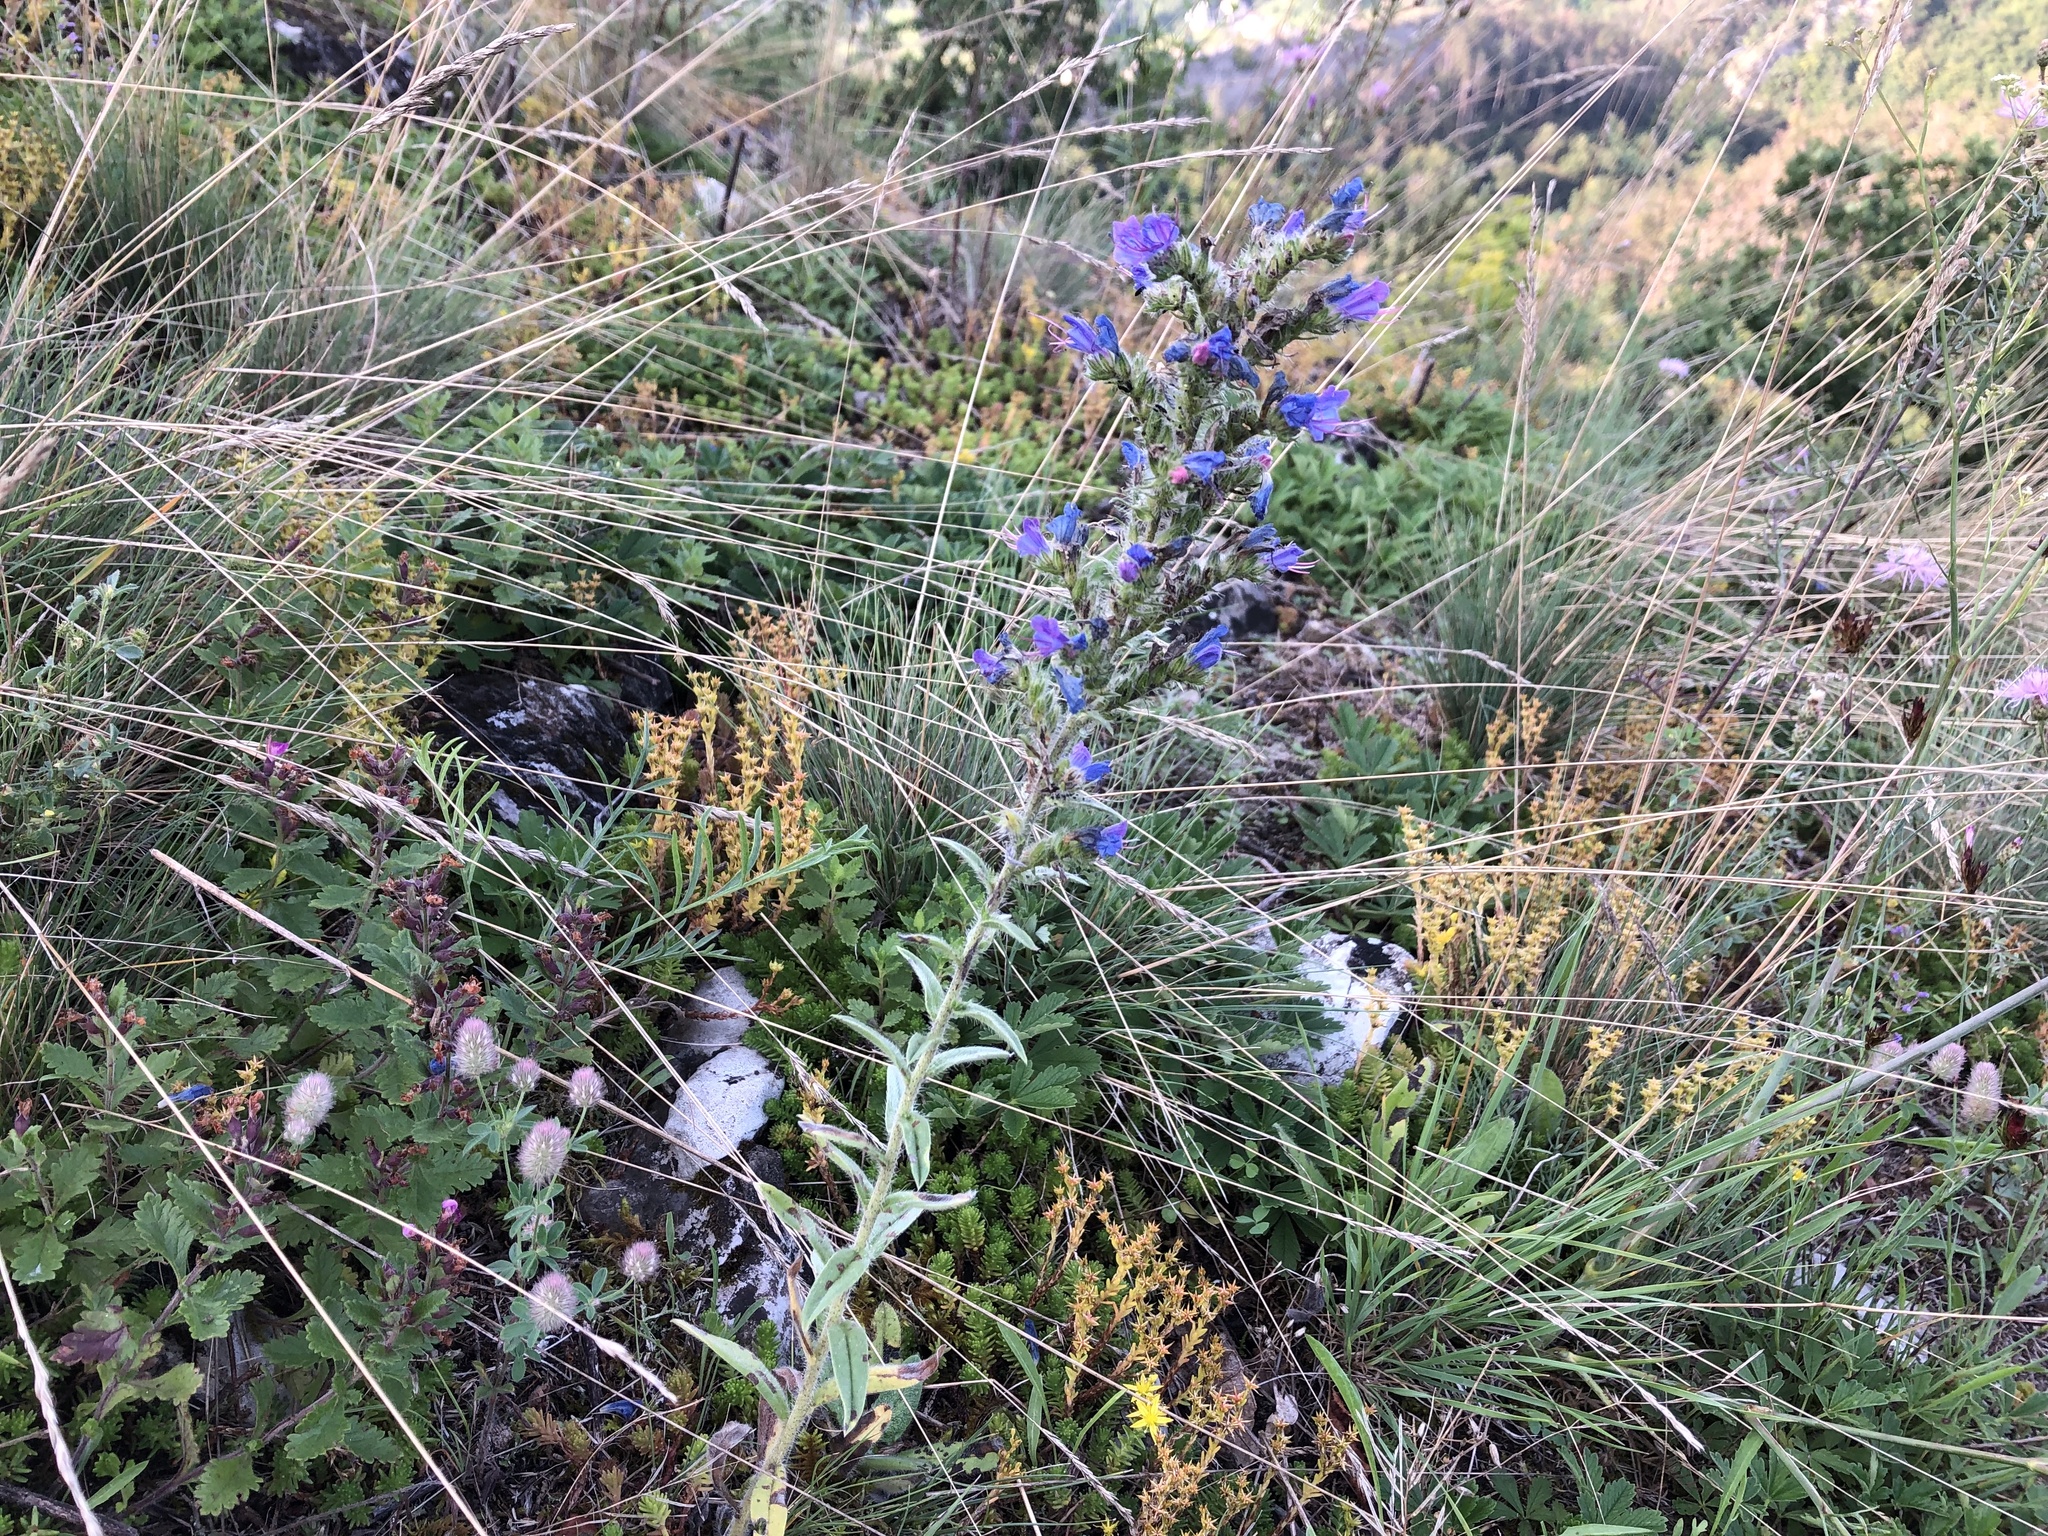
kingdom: Plantae
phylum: Tracheophyta
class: Magnoliopsida
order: Boraginales
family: Boraginaceae
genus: Echium
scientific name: Echium vulgare
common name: Common viper's bugloss
